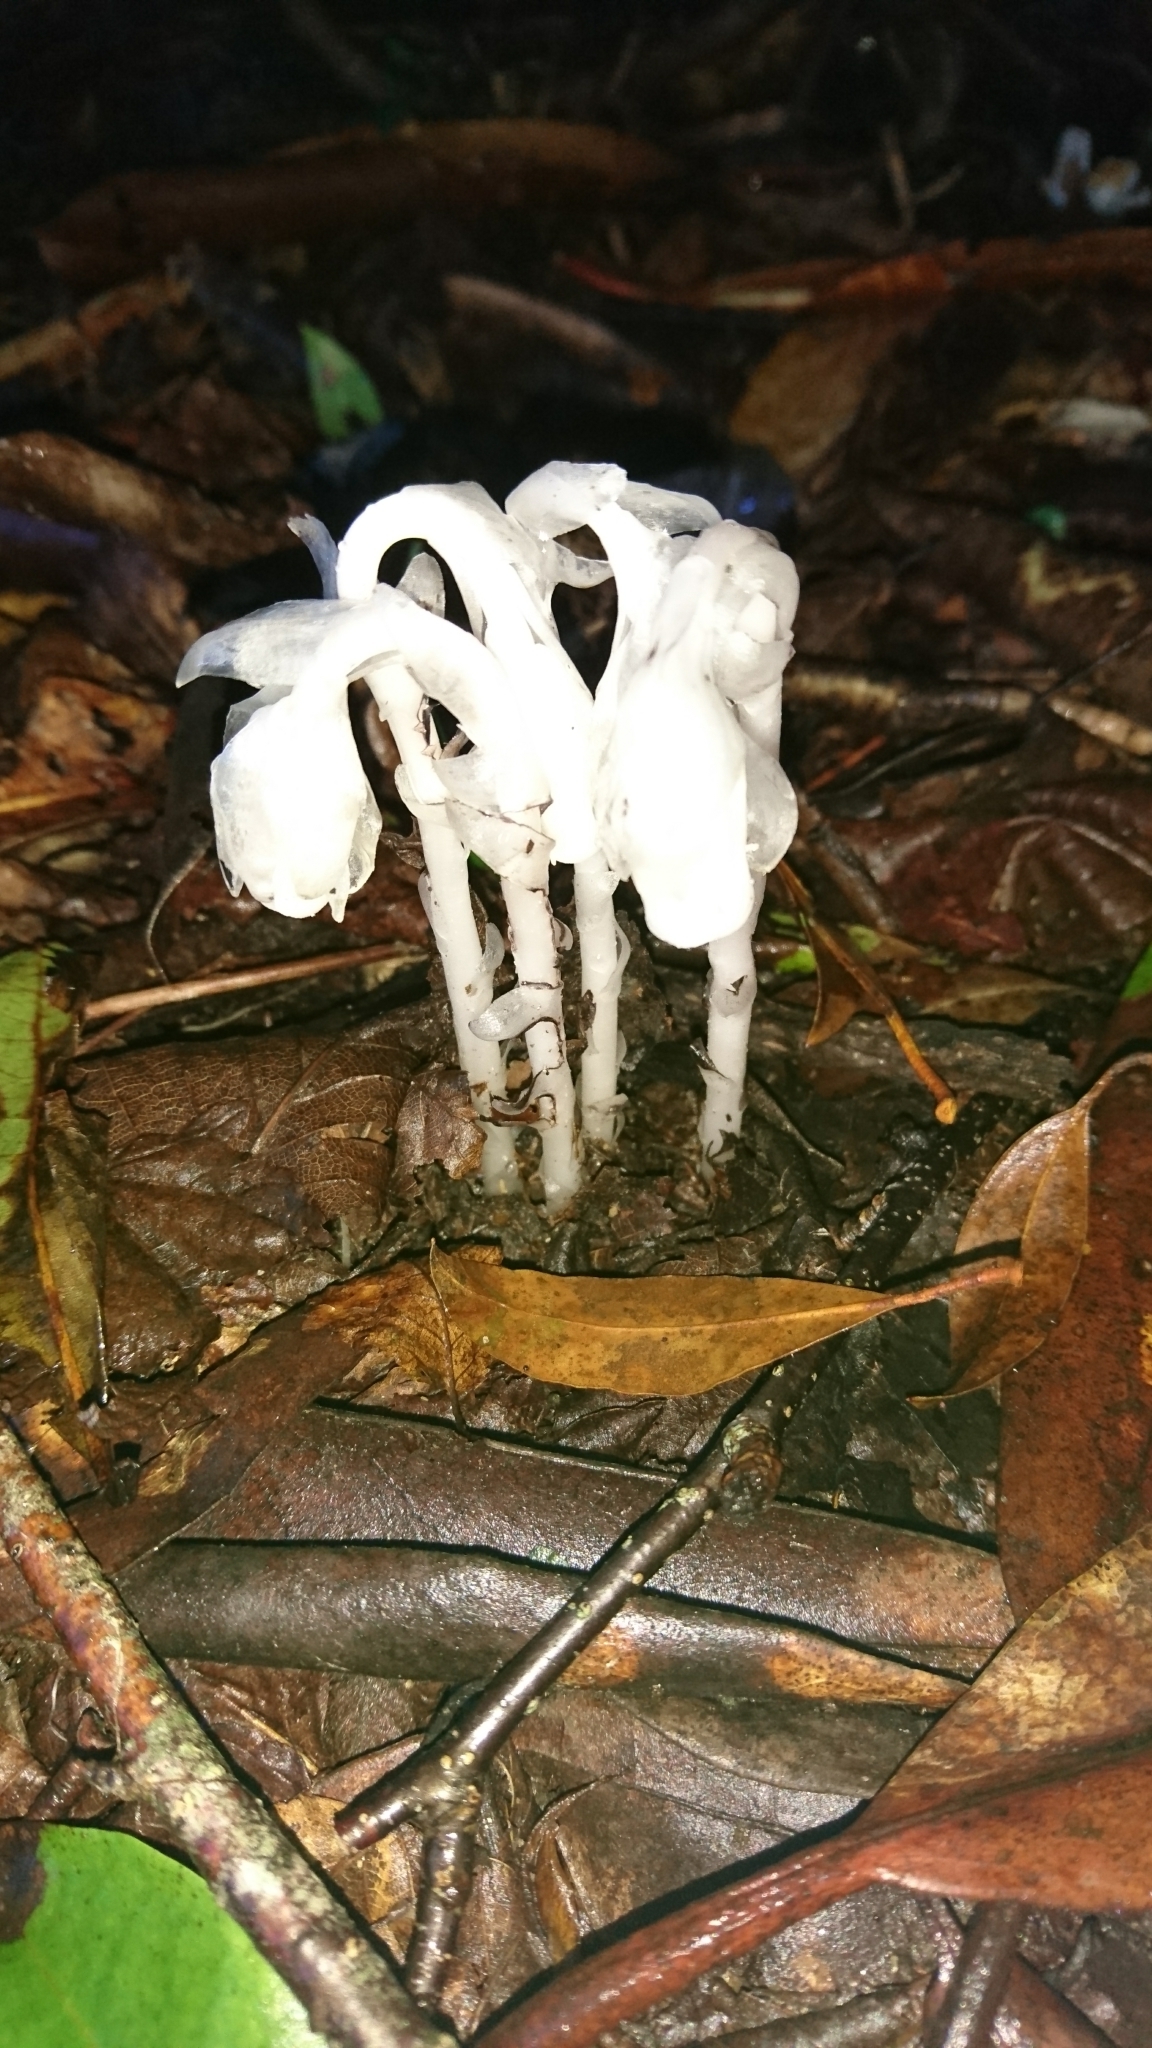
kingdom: Plantae
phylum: Tracheophyta
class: Magnoliopsida
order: Ericales
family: Ericaceae
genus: Monotropa
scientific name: Monotropa uniflora
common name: Convulsion root
